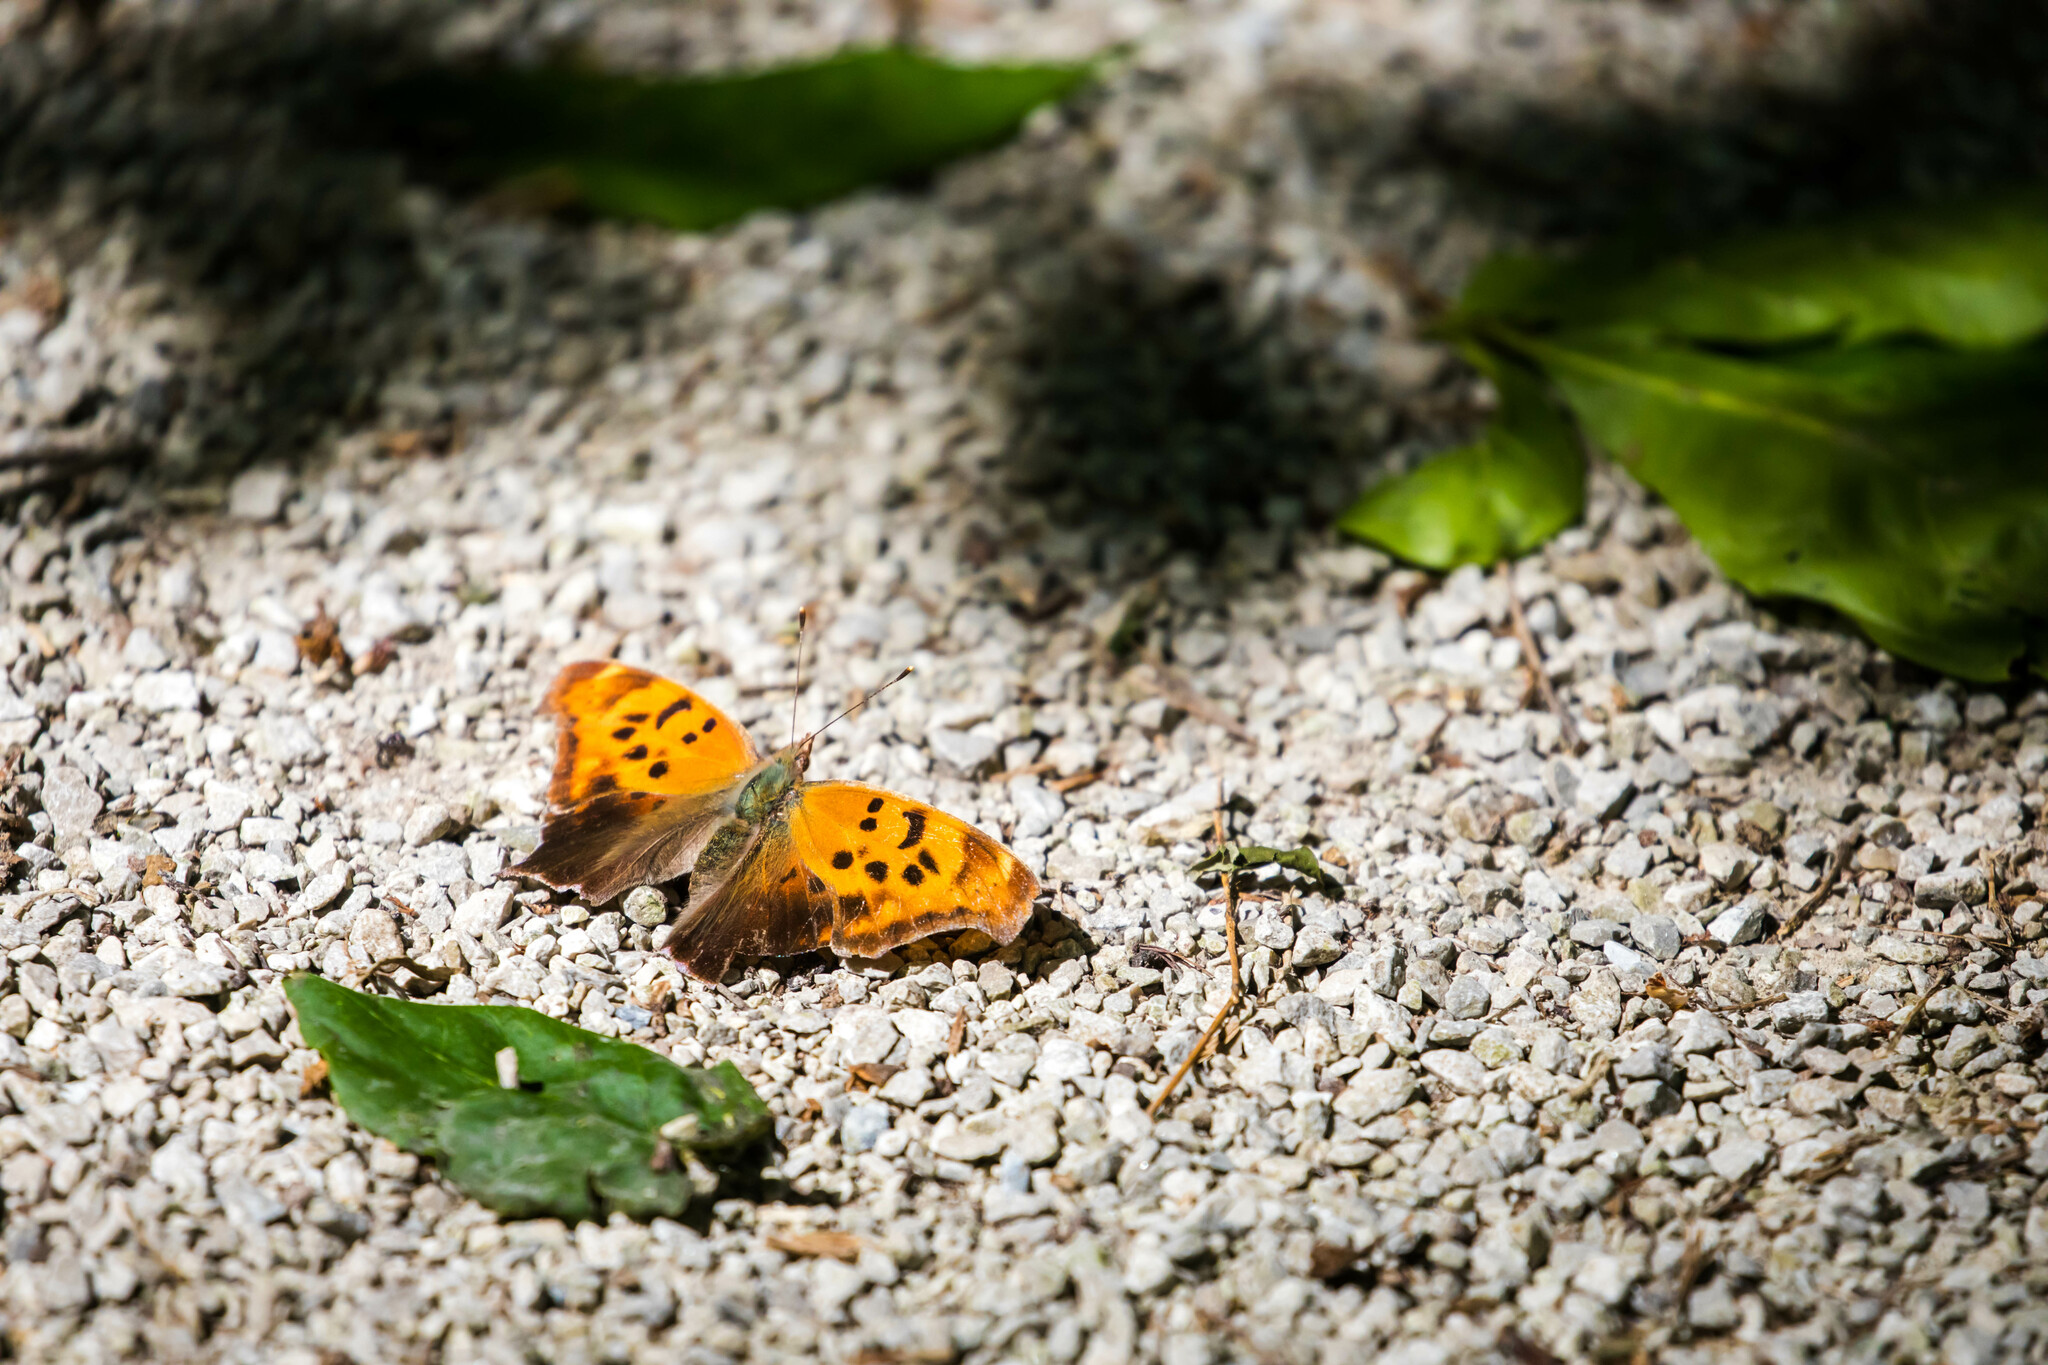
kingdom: Animalia
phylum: Arthropoda
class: Insecta
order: Lepidoptera
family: Nymphalidae
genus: Polygonia
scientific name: Polygonia interrogationis
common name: Question mark
